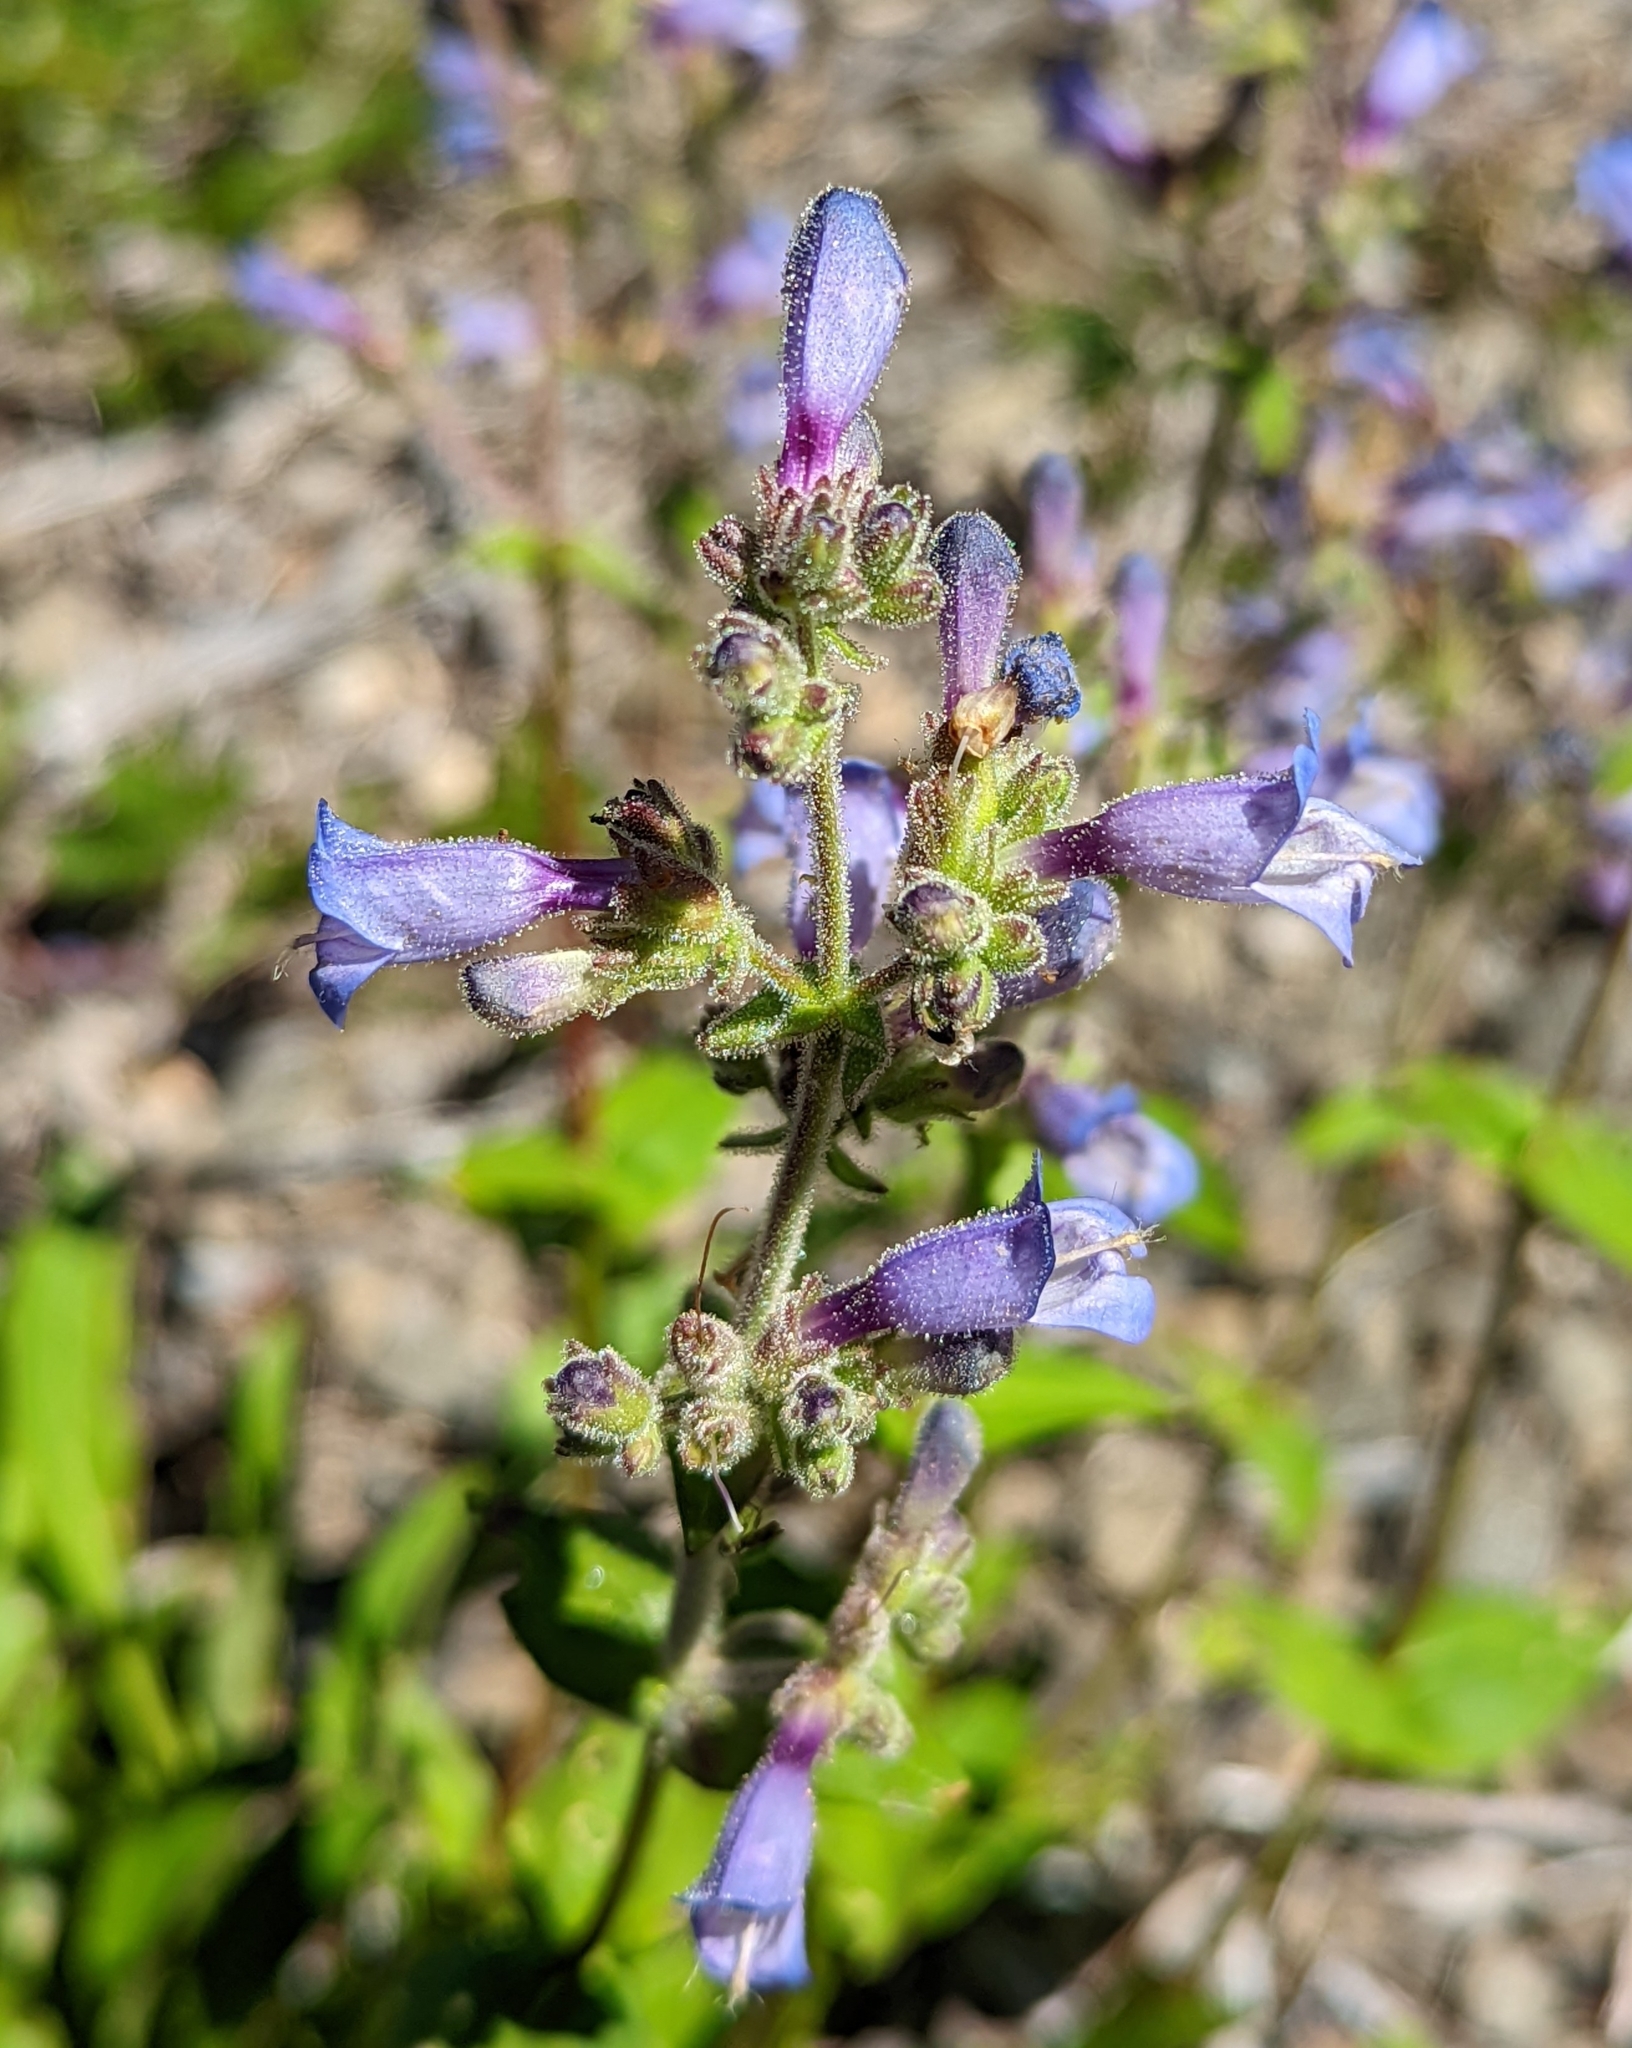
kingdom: Plantae
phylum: Tracheophyta
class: Magnoliopsida
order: Lamiales
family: Plantaginaceae
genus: Penstemon
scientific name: Penstemon anguineus
